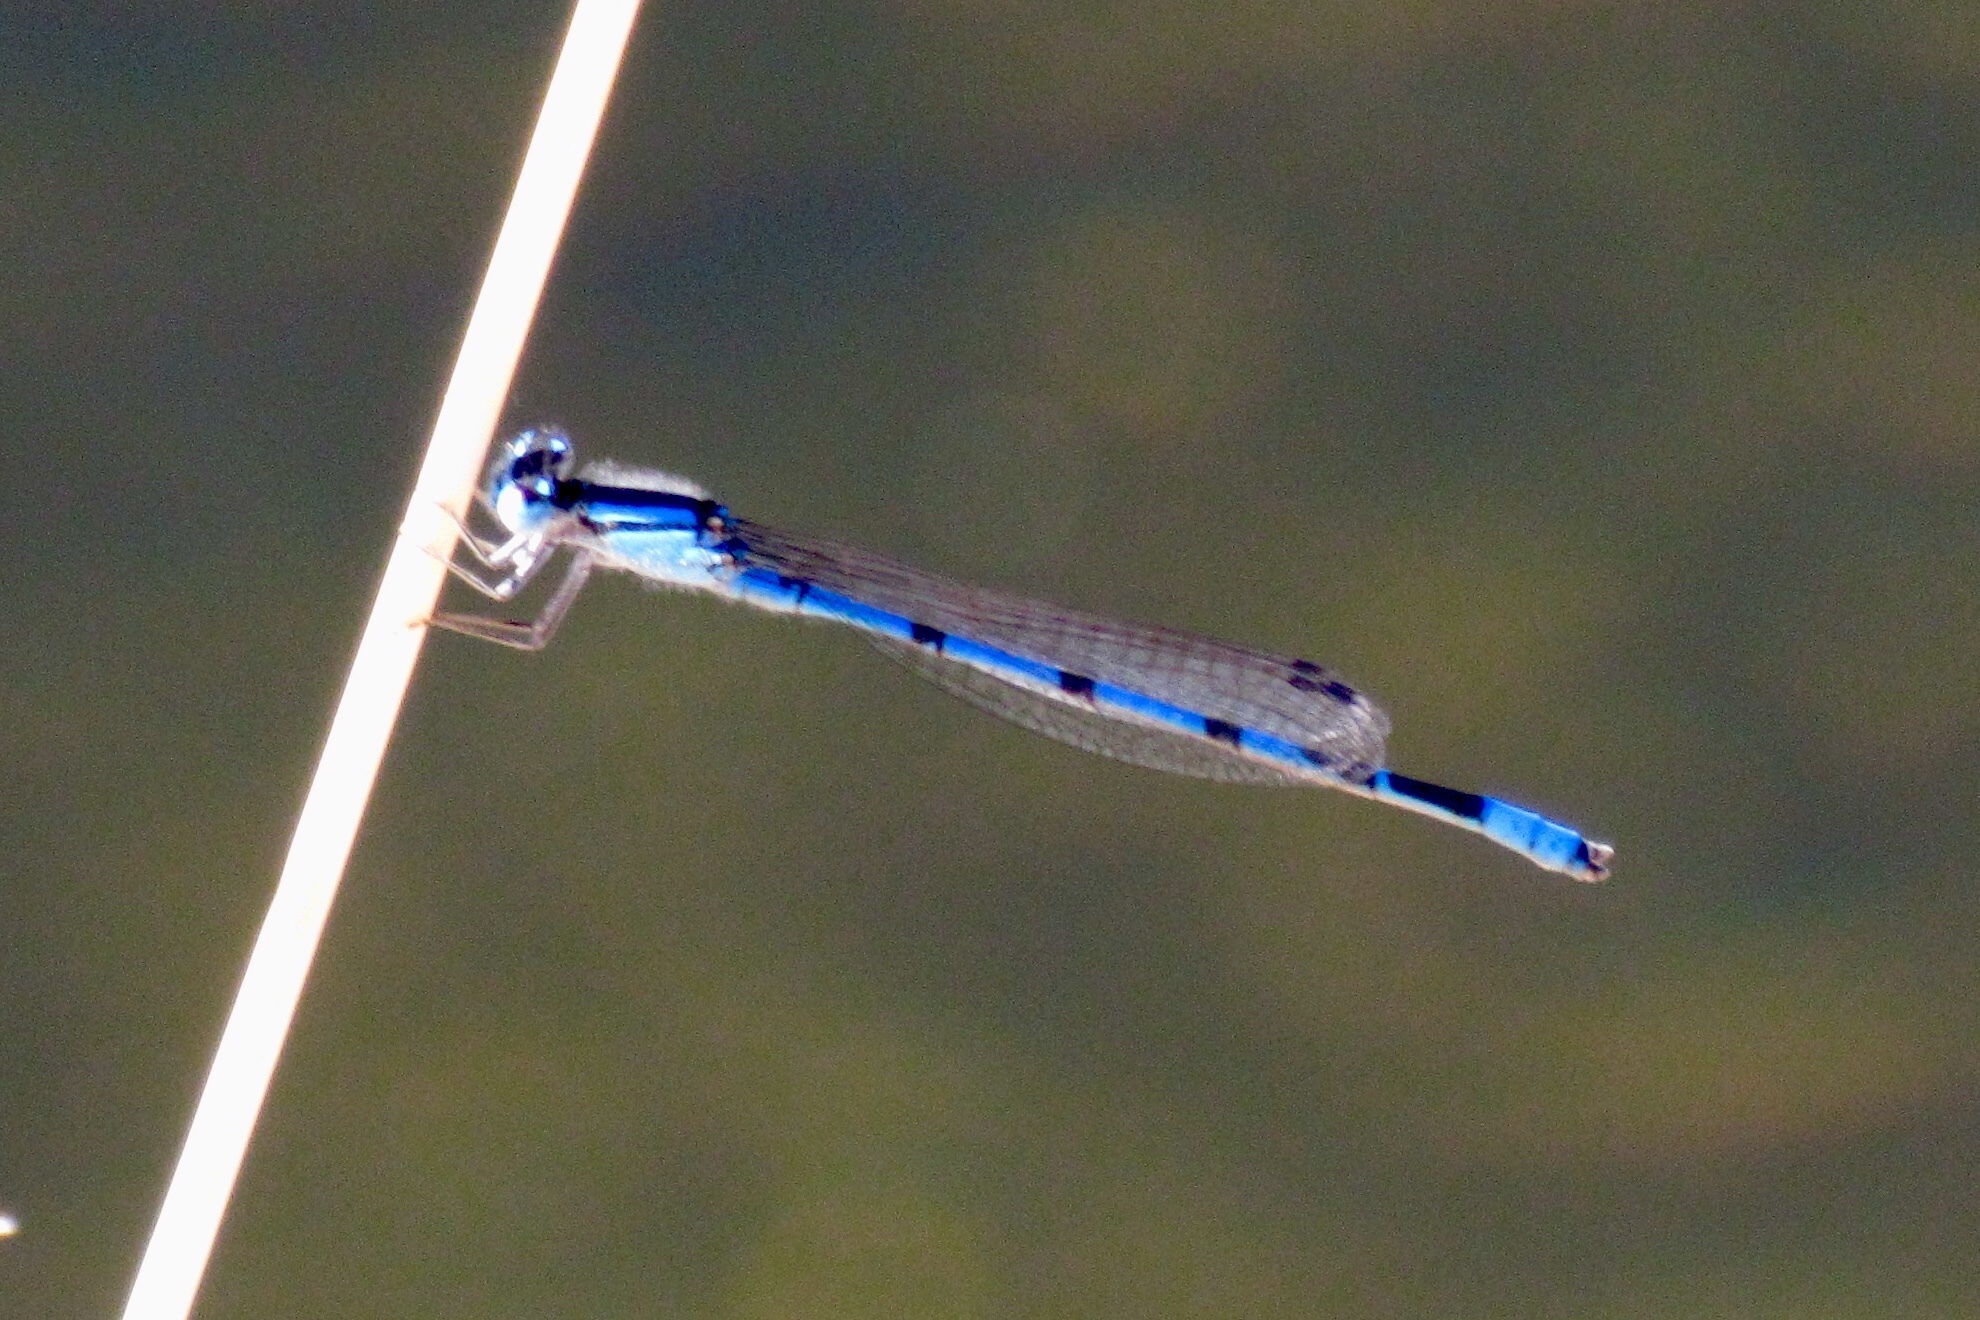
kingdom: Animalia
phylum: Arthropoda
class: Insecta
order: Odonata
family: Coenagrionidae
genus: Enallagma
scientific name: Enallagma civile
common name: Damselfly
